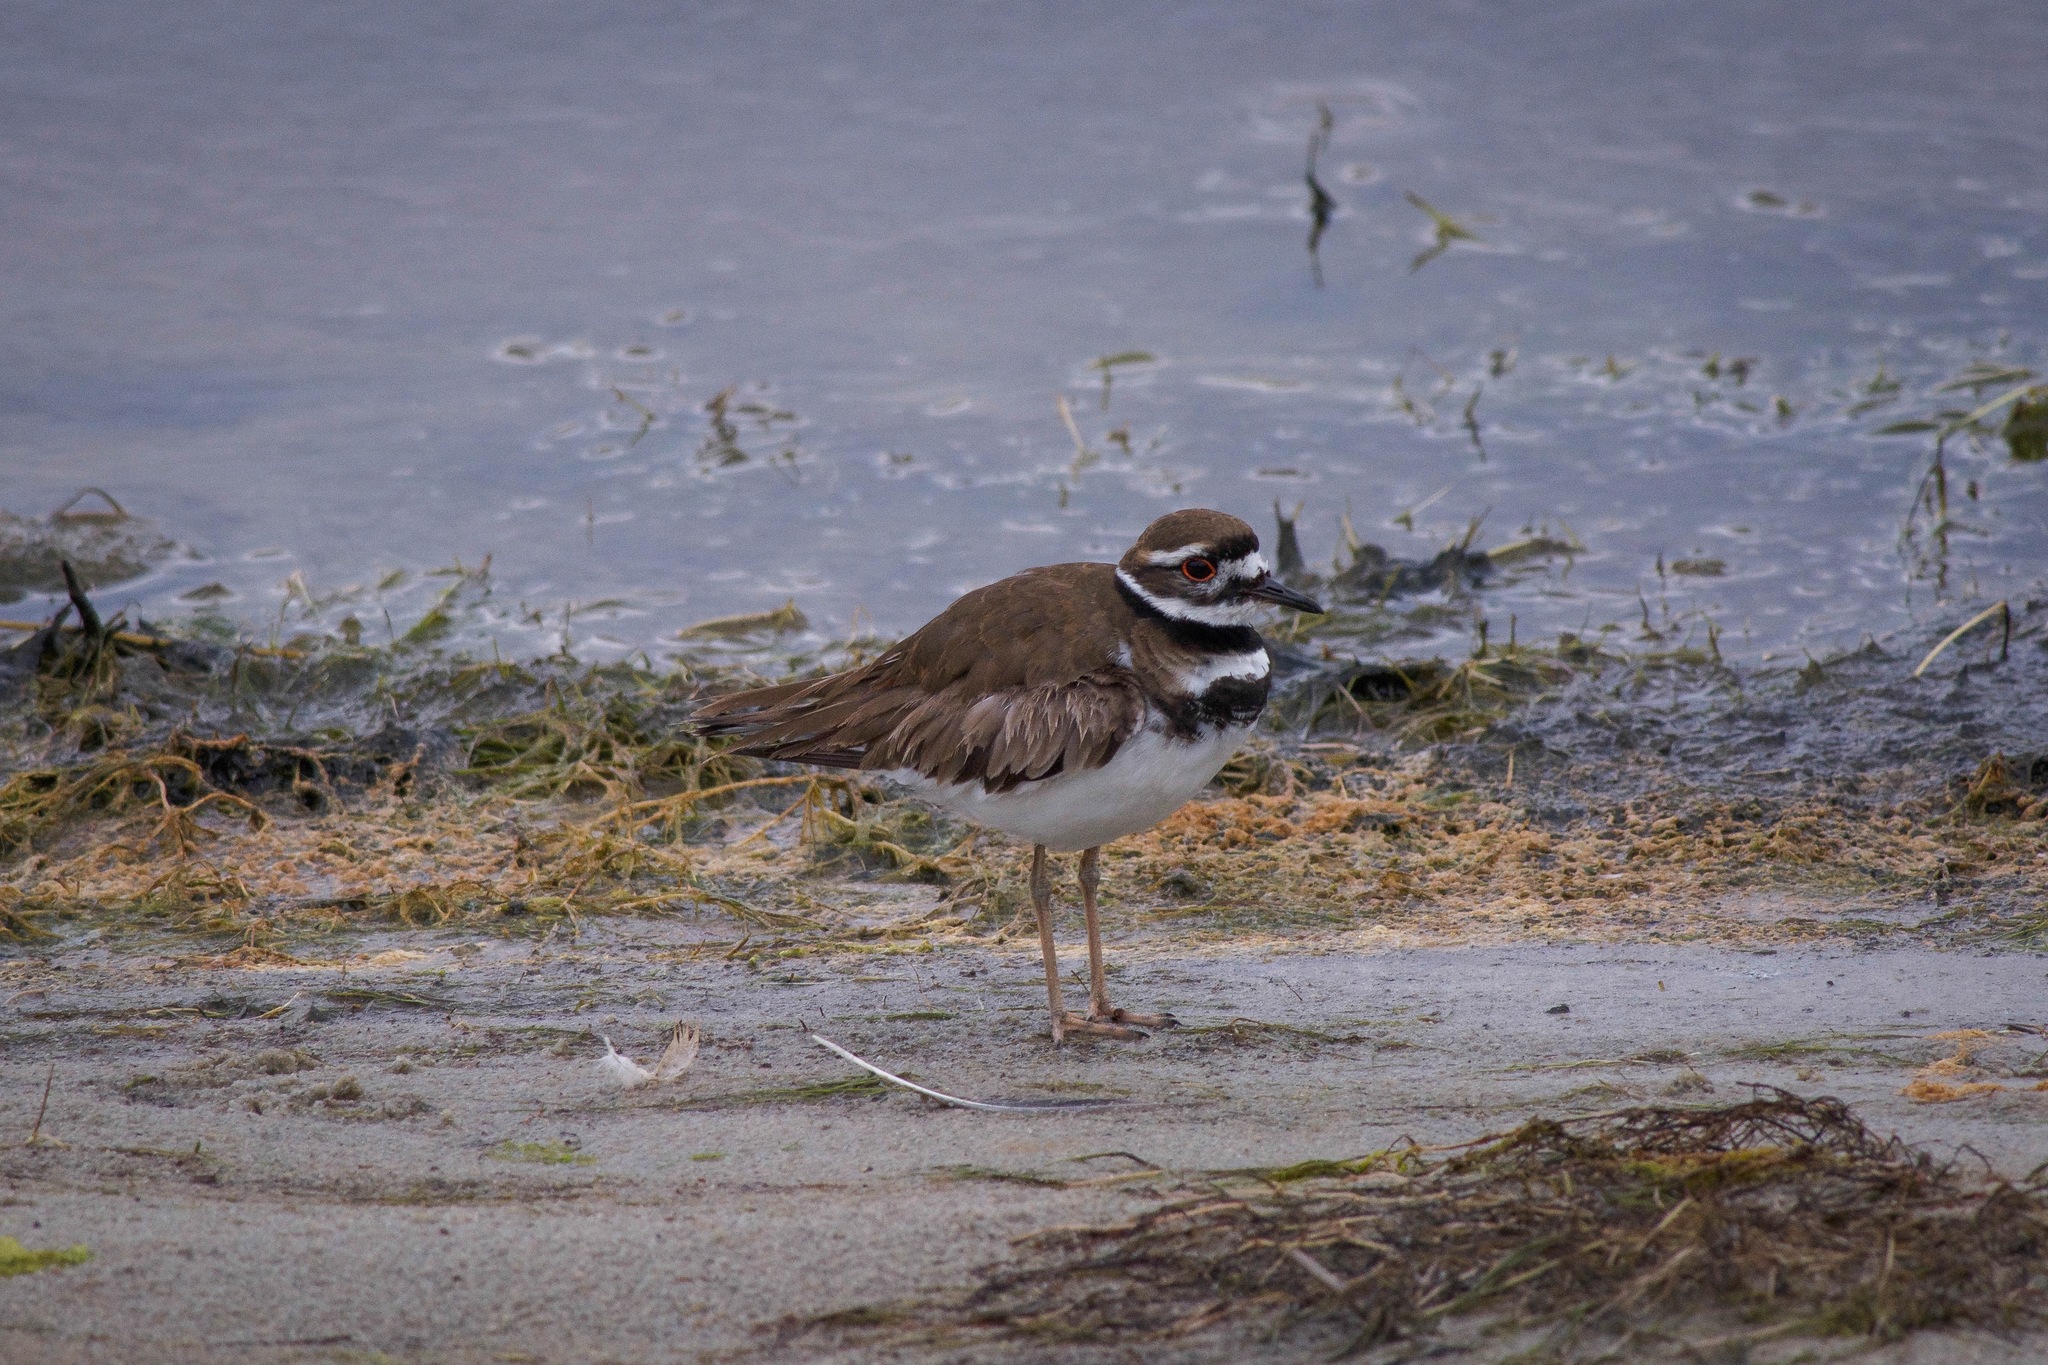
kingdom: Animalia
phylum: Chordata
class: Aves
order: Charadriiformes
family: Charadriidae
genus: Charadrius
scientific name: Charadrius vociferus
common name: Killdeer
